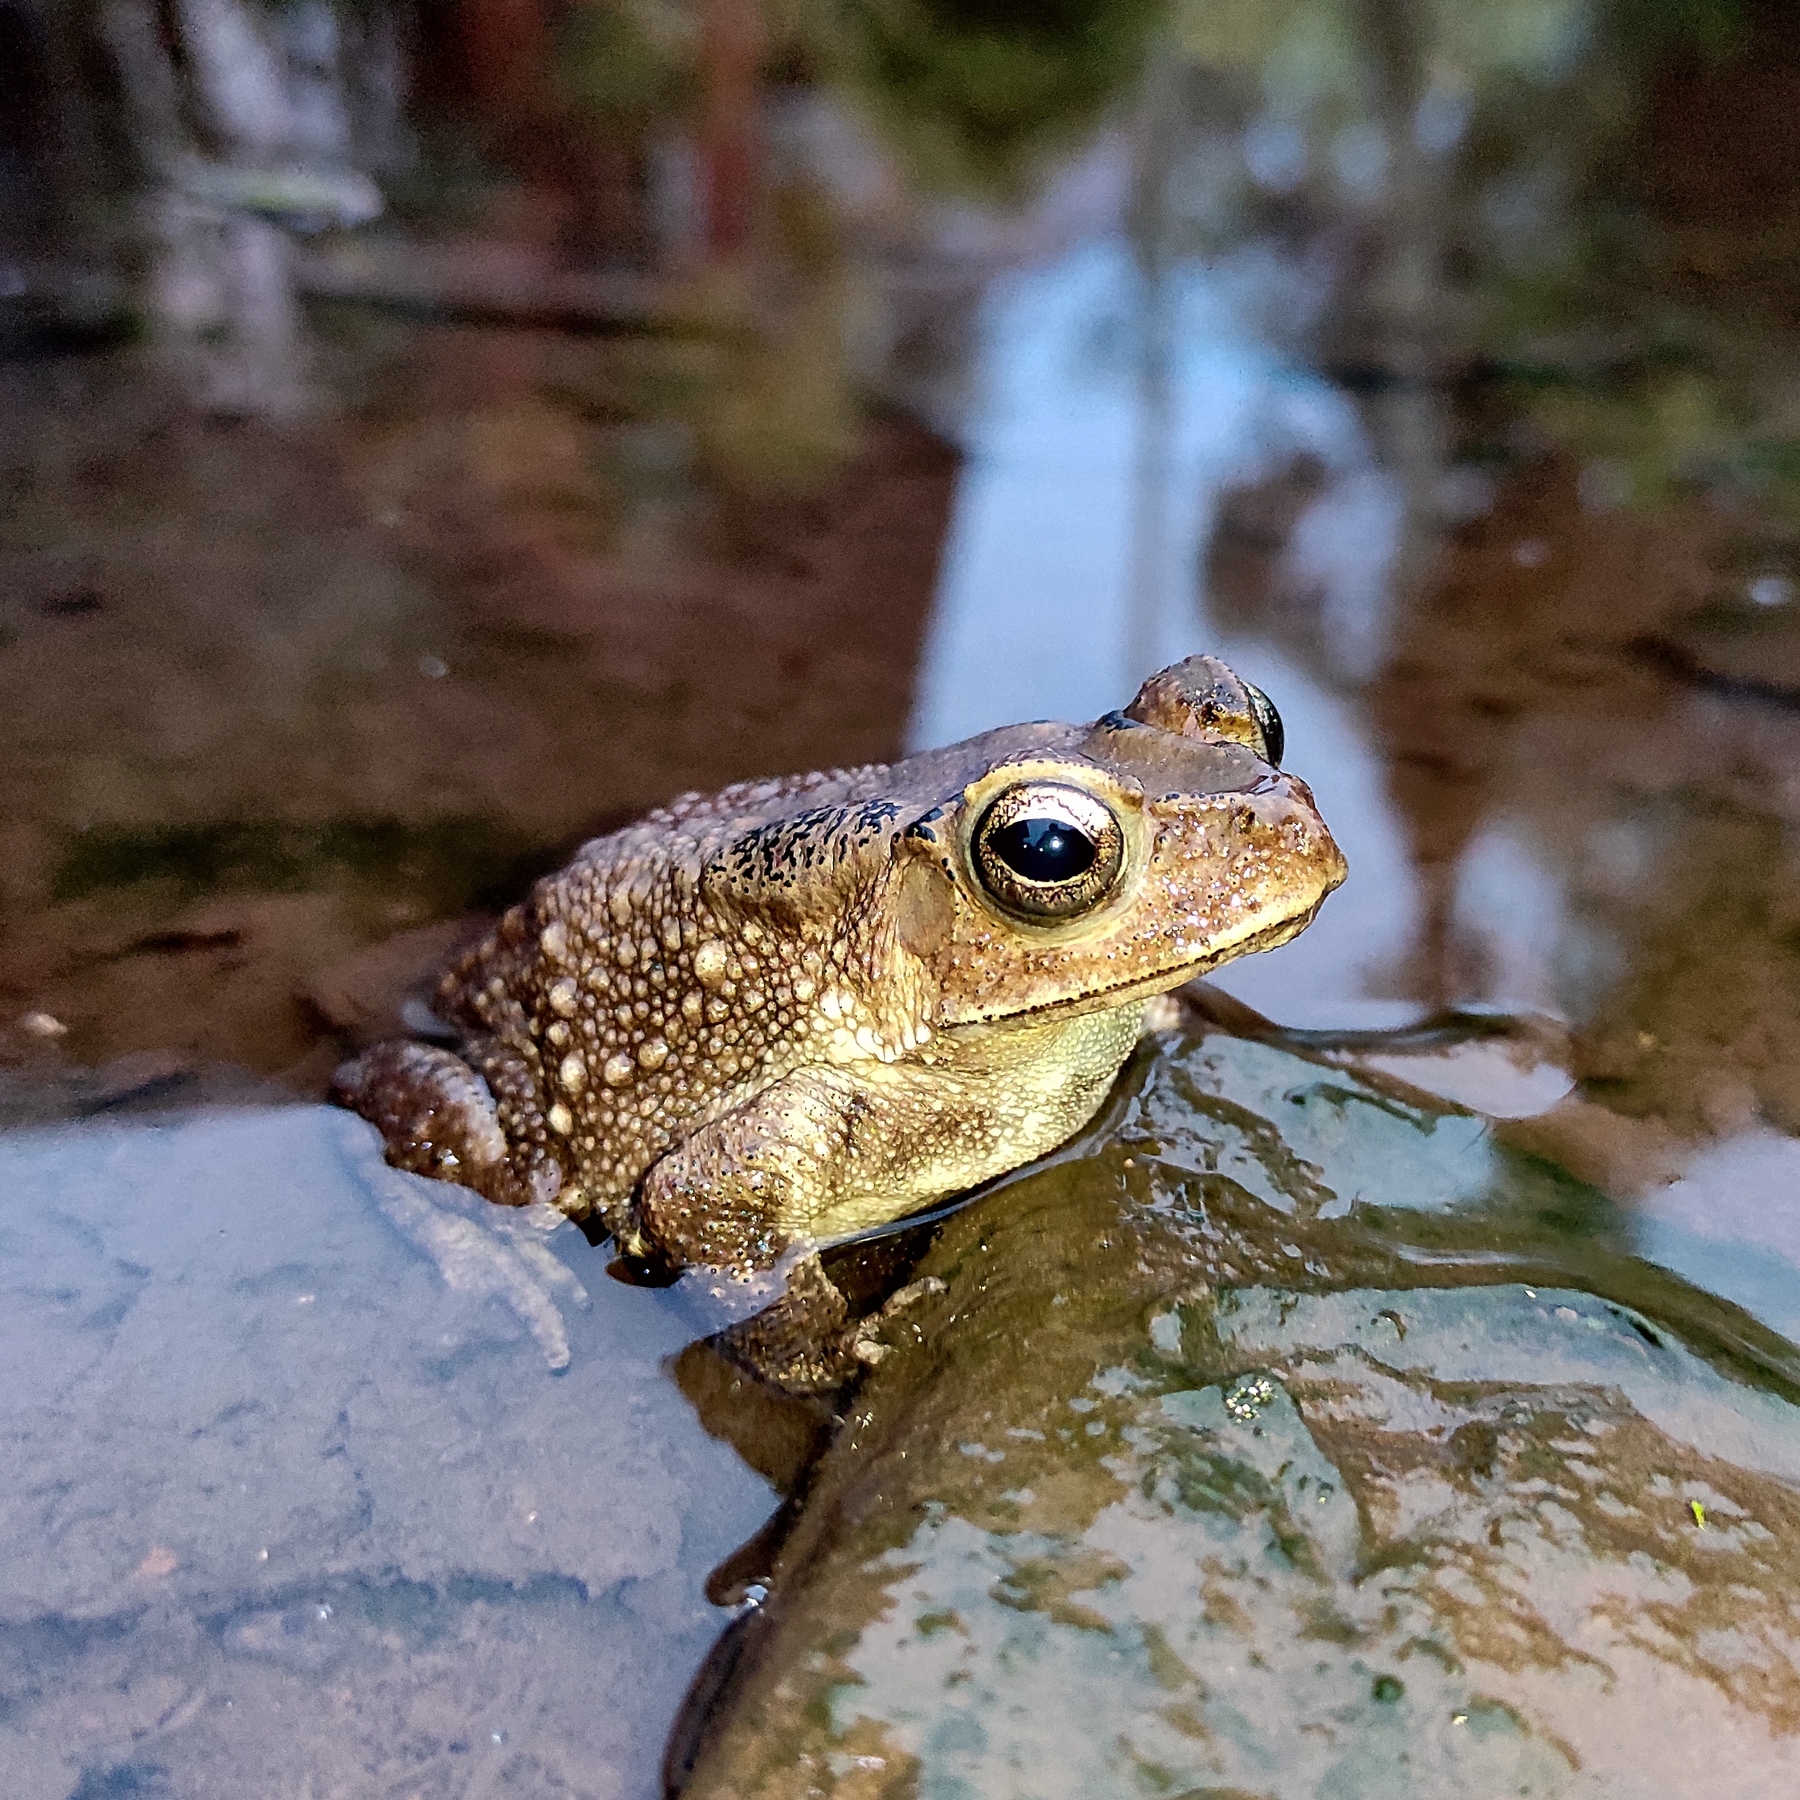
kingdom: Animalia
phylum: Chordata
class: Amphibia
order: Anura
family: Bufonidae
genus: Duttaphrynus
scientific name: Duttaphrynus melanostictus
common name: Common sunda toad
